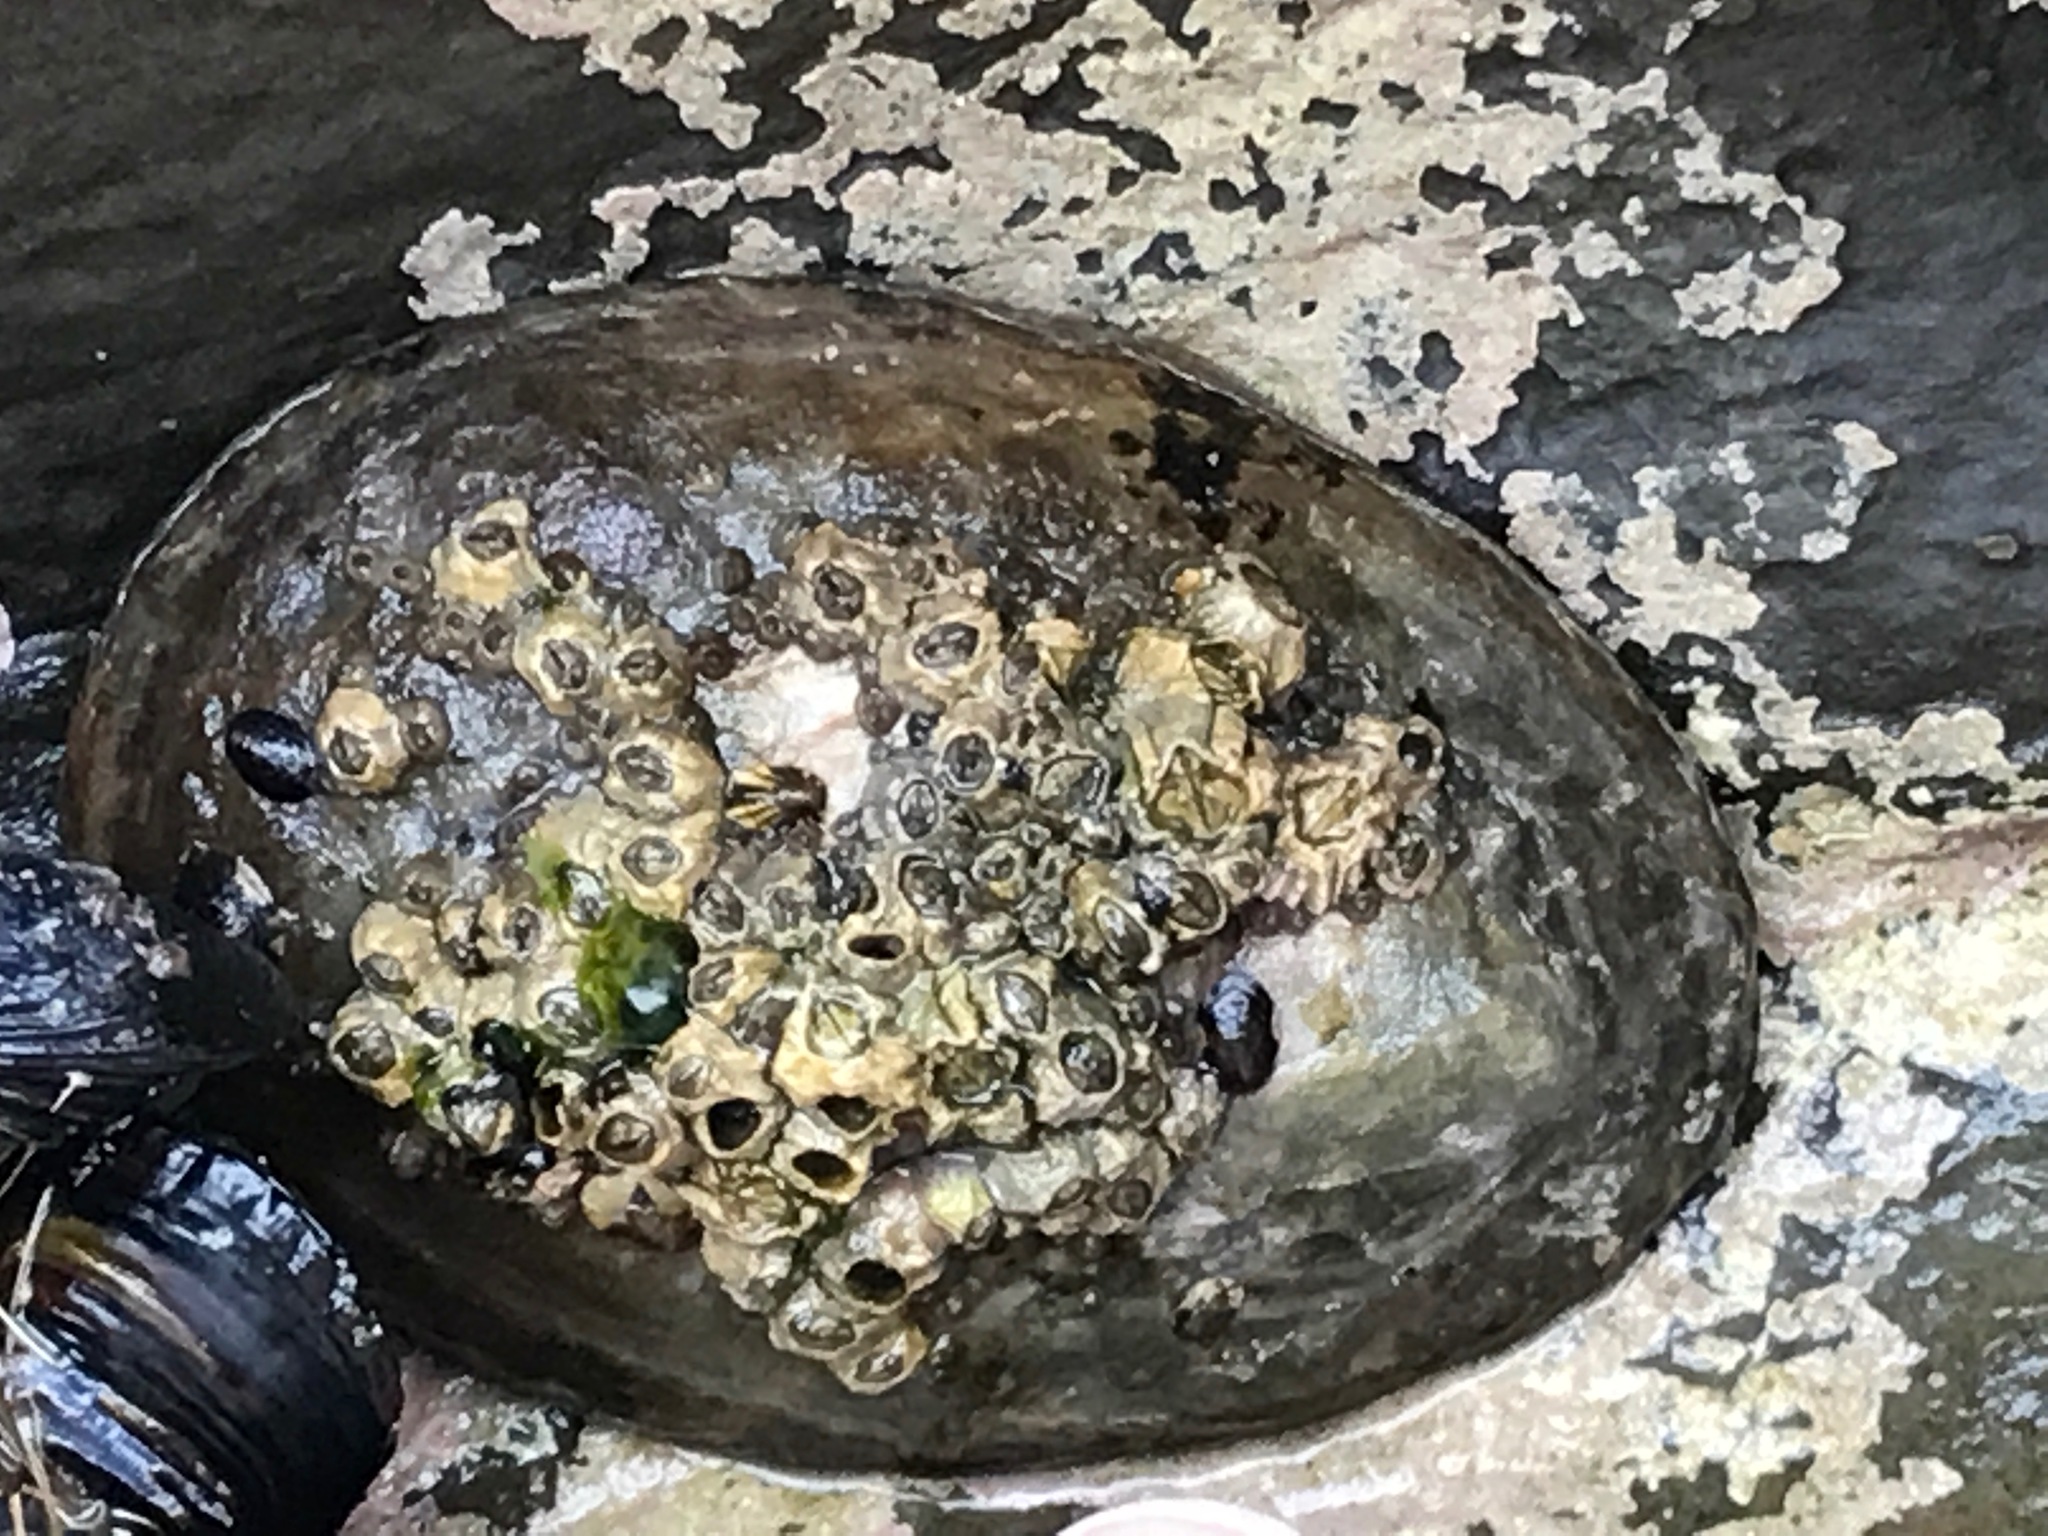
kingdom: Animalia
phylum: Mollusca
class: Gastropoda
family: Lottiidae
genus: Lottia
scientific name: Lottia gigantea
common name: Owl limpet
